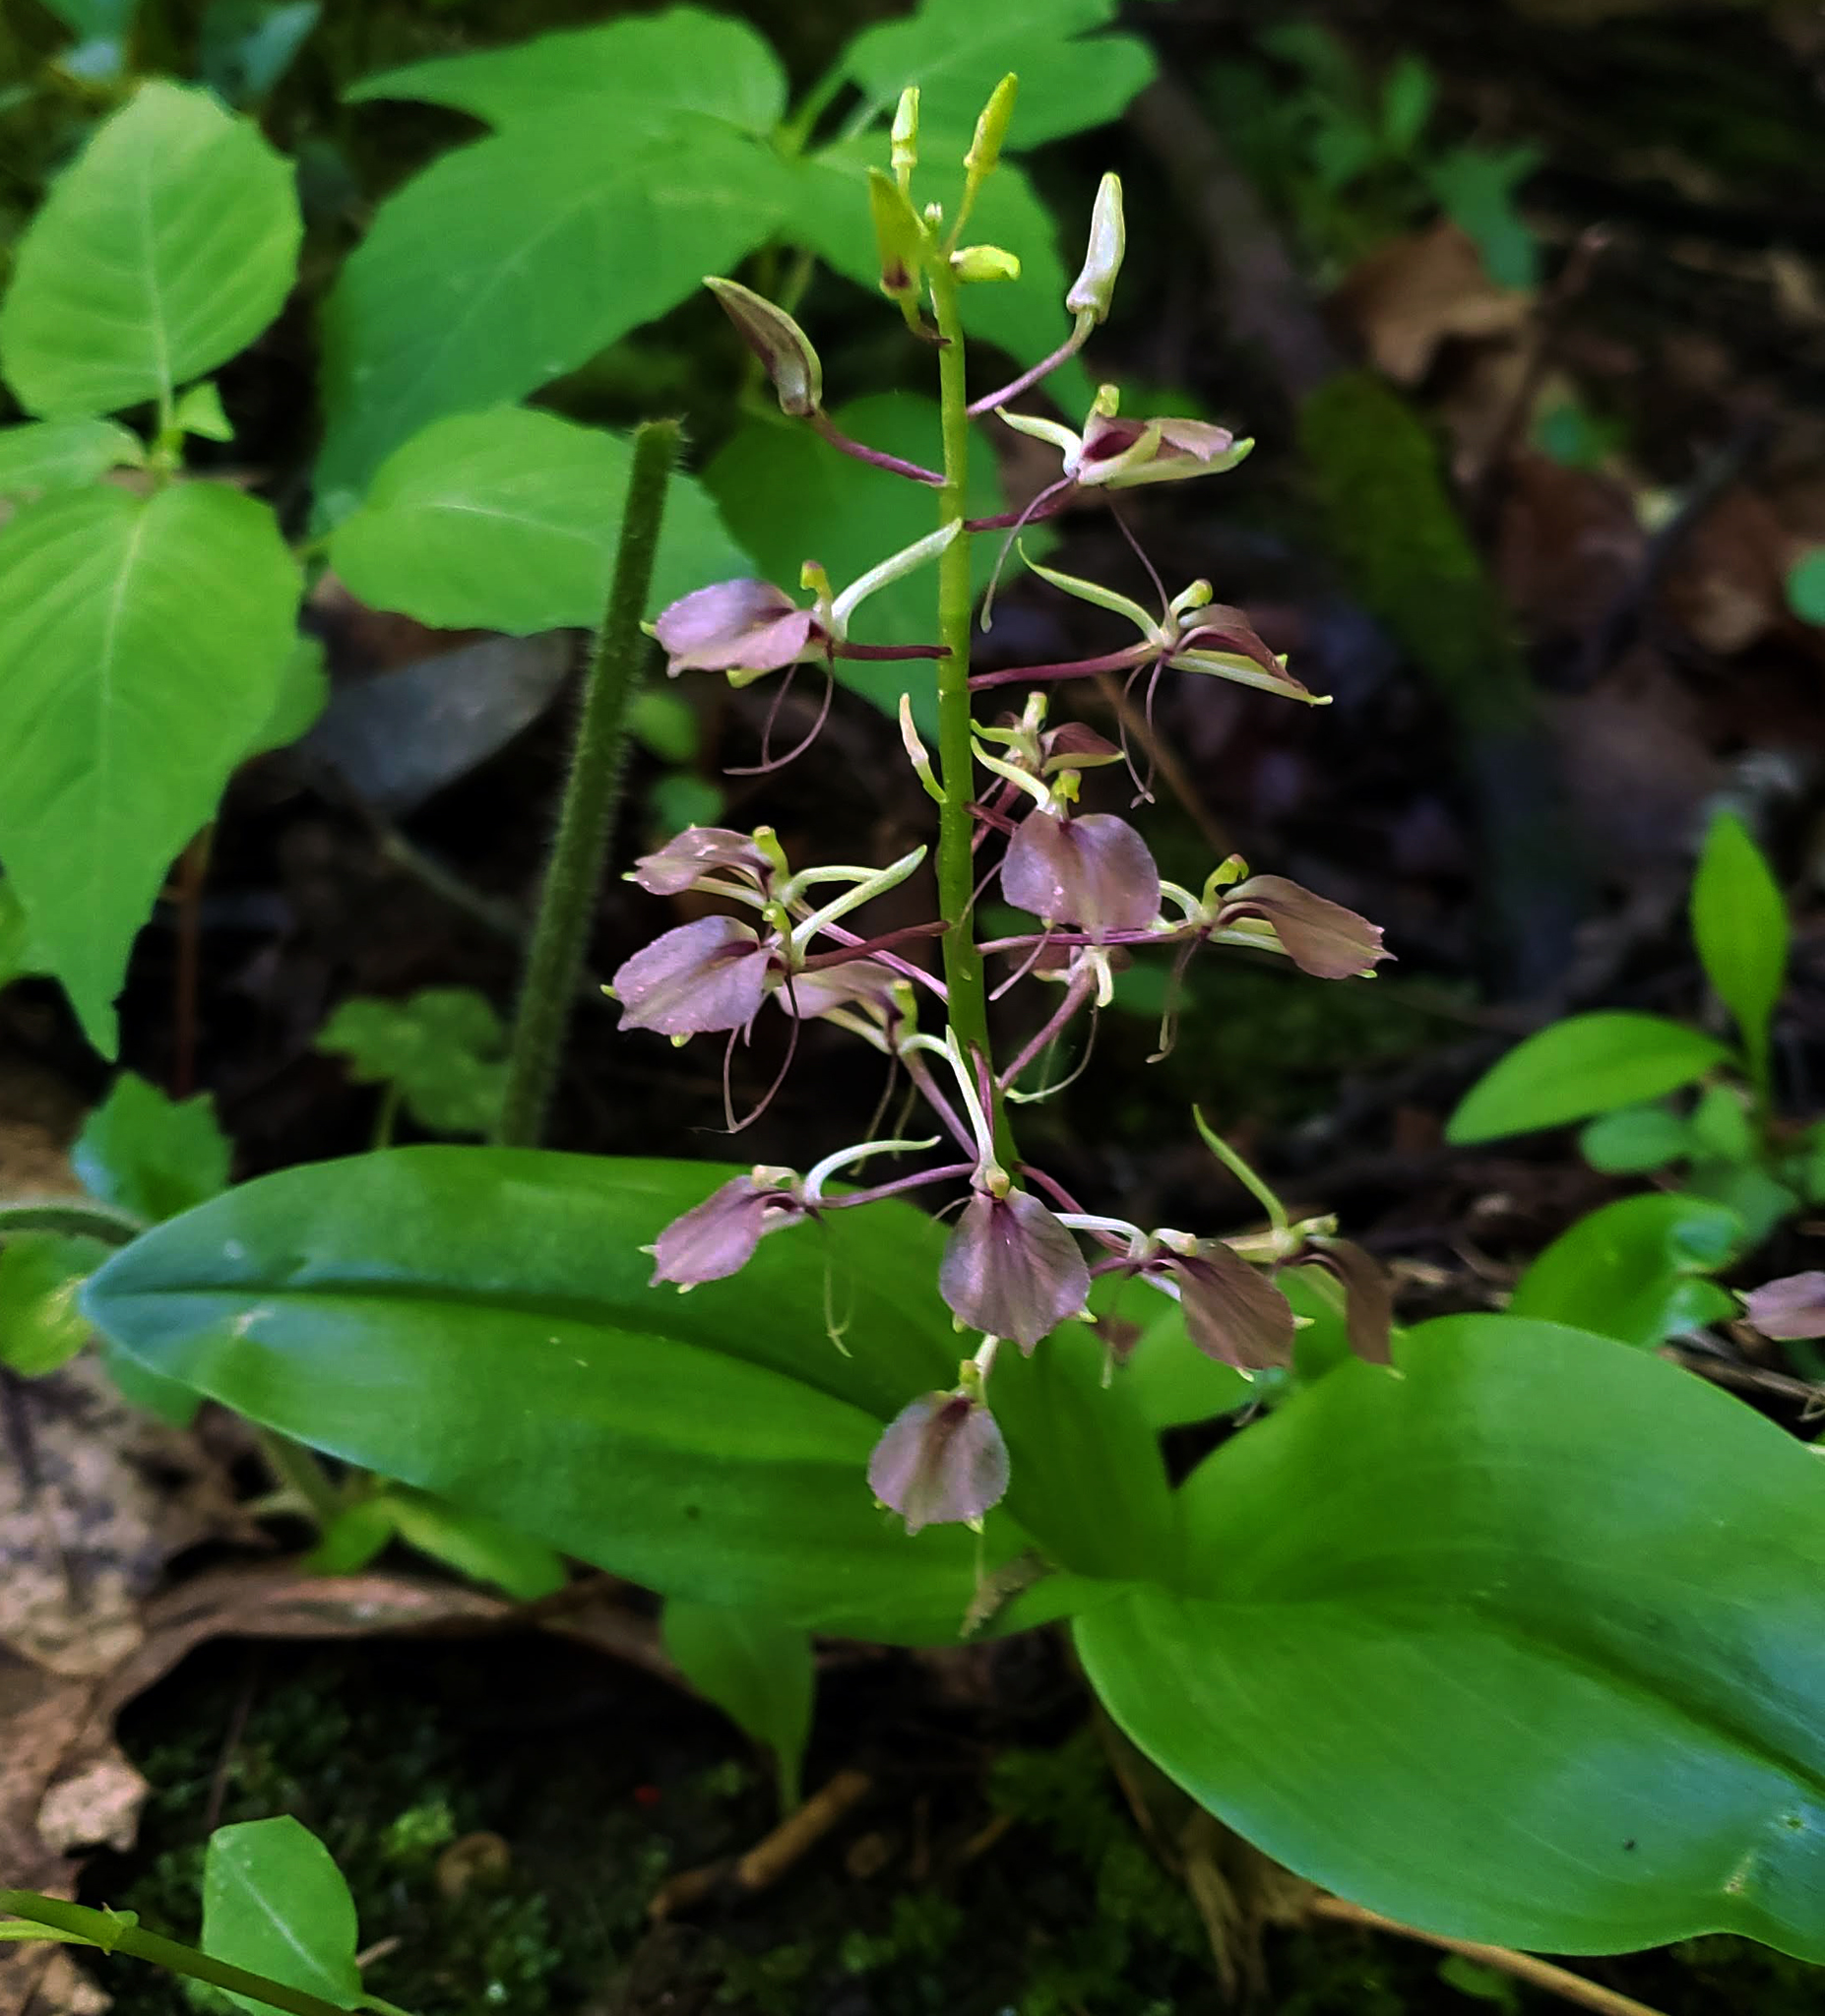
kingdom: Plantae
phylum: Tracheophyta
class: Liliopsida
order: Asparagales
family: Orchidaceae
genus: Liparis
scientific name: Liparis liliifolia
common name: Brown wide-lip orchid
